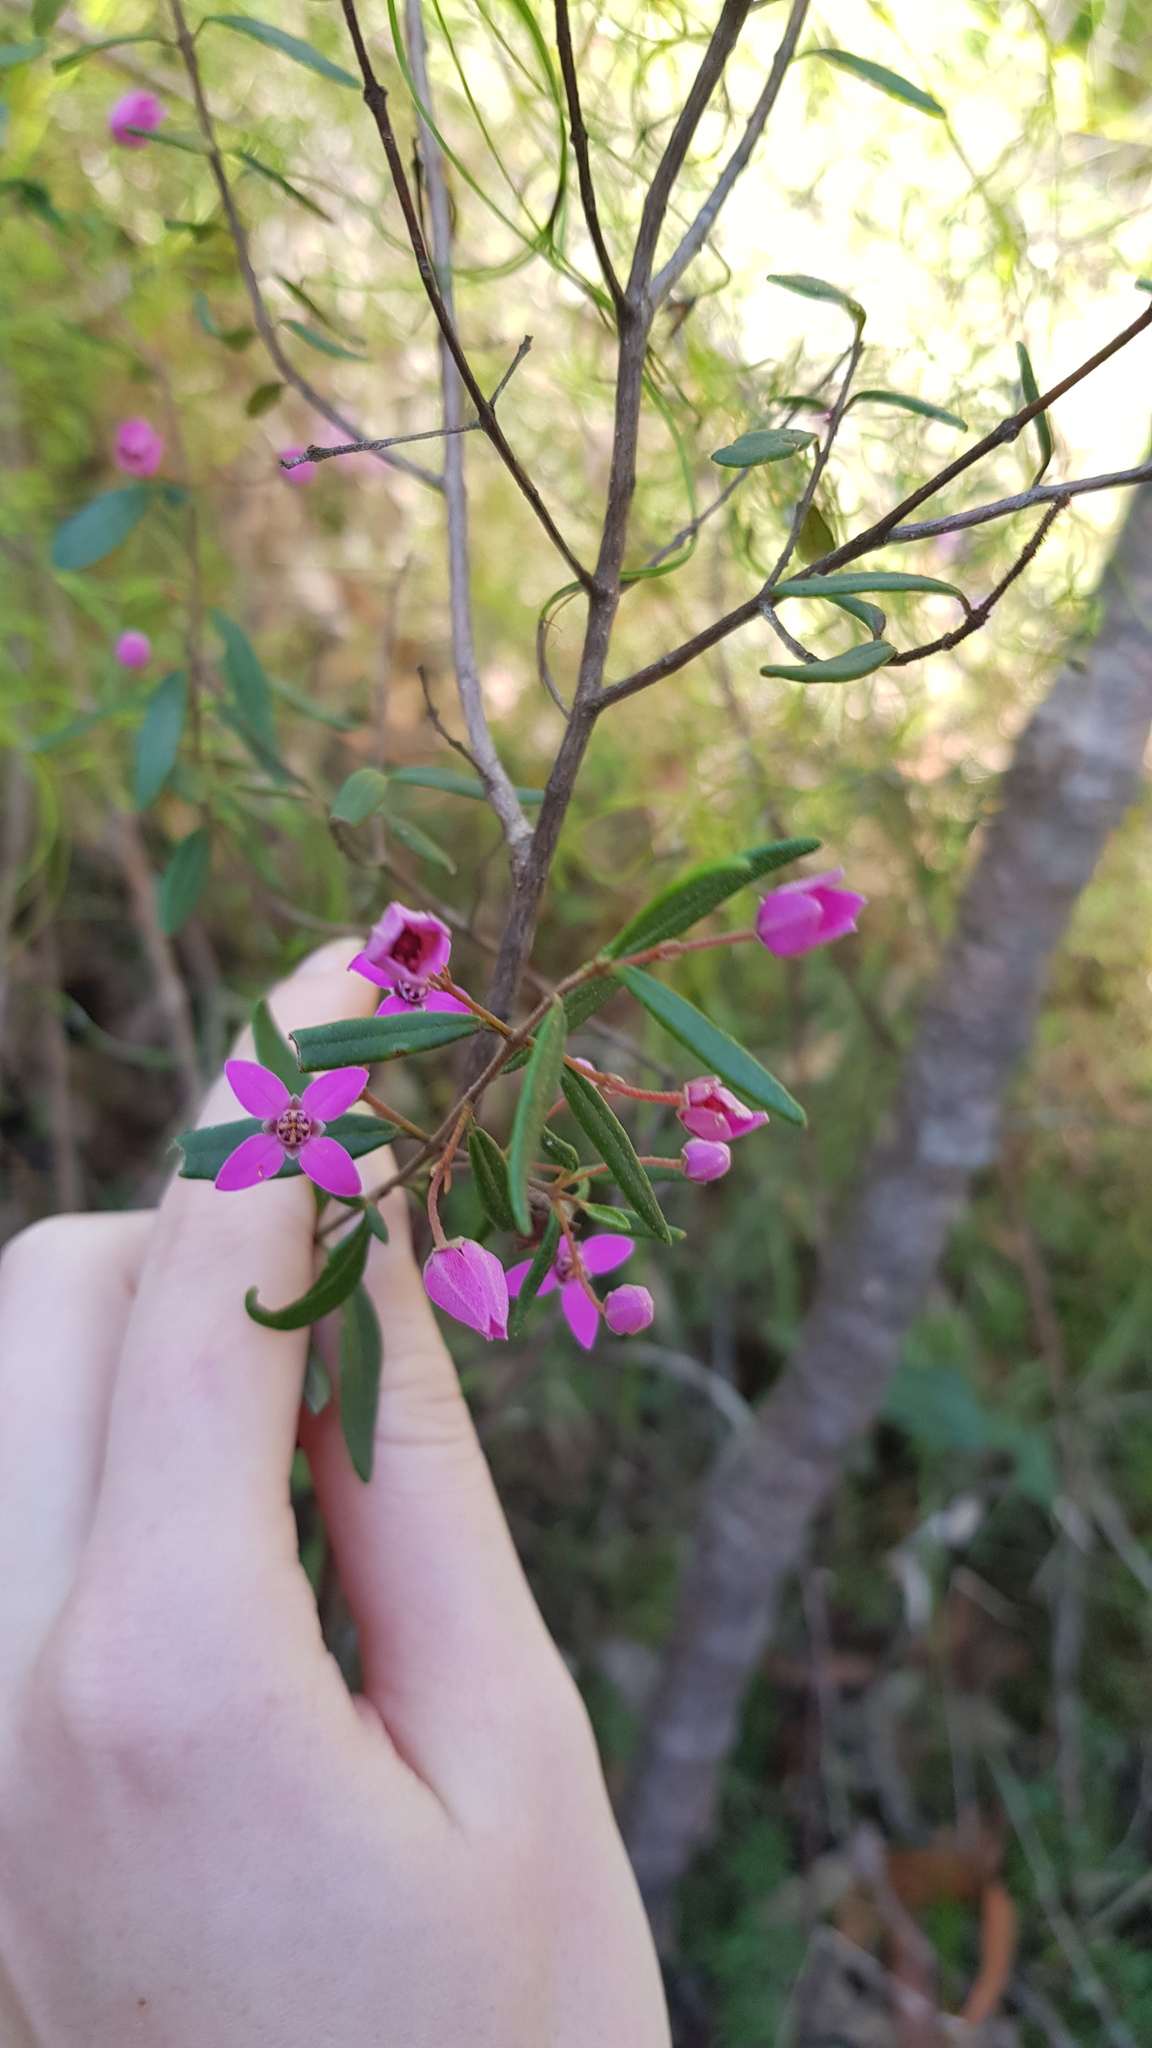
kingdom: Plantae
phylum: Tracheophyta
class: Magnoliopsida
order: Sapindales
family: Rutaceae
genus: Boronia
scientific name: Boronia ledifolia
